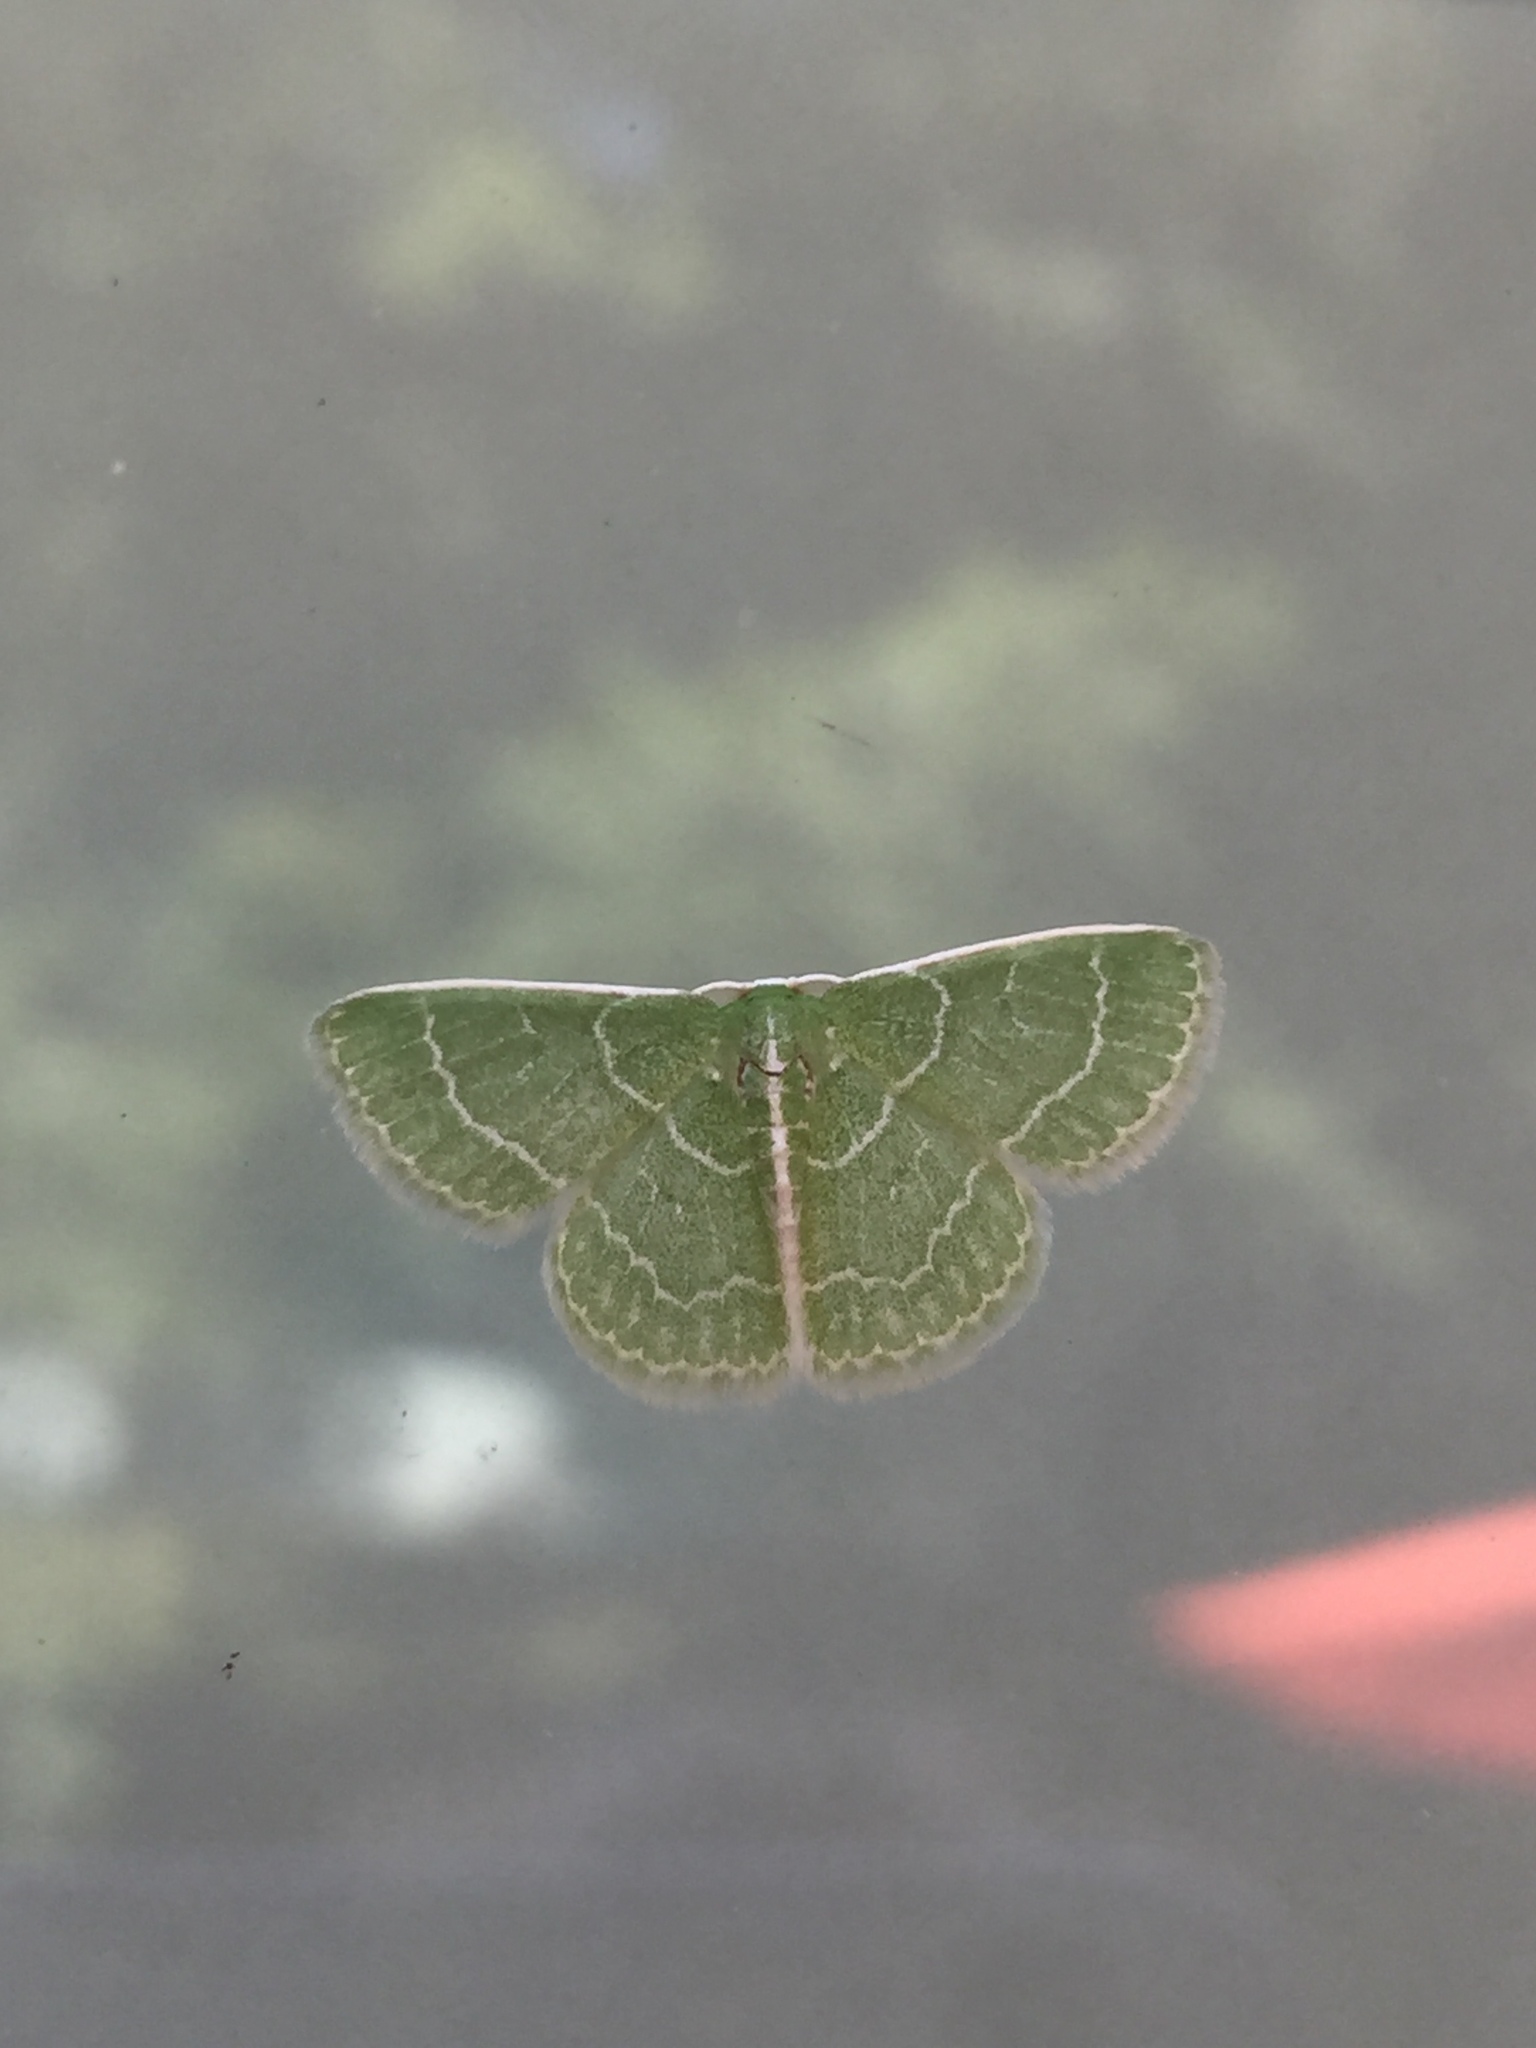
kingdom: Animalia
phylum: Arthropoda
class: Insecta
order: Lepidoptera
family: Geometridae
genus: Synchlora
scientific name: Synchlora aerata
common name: Wavy-lined emerald
